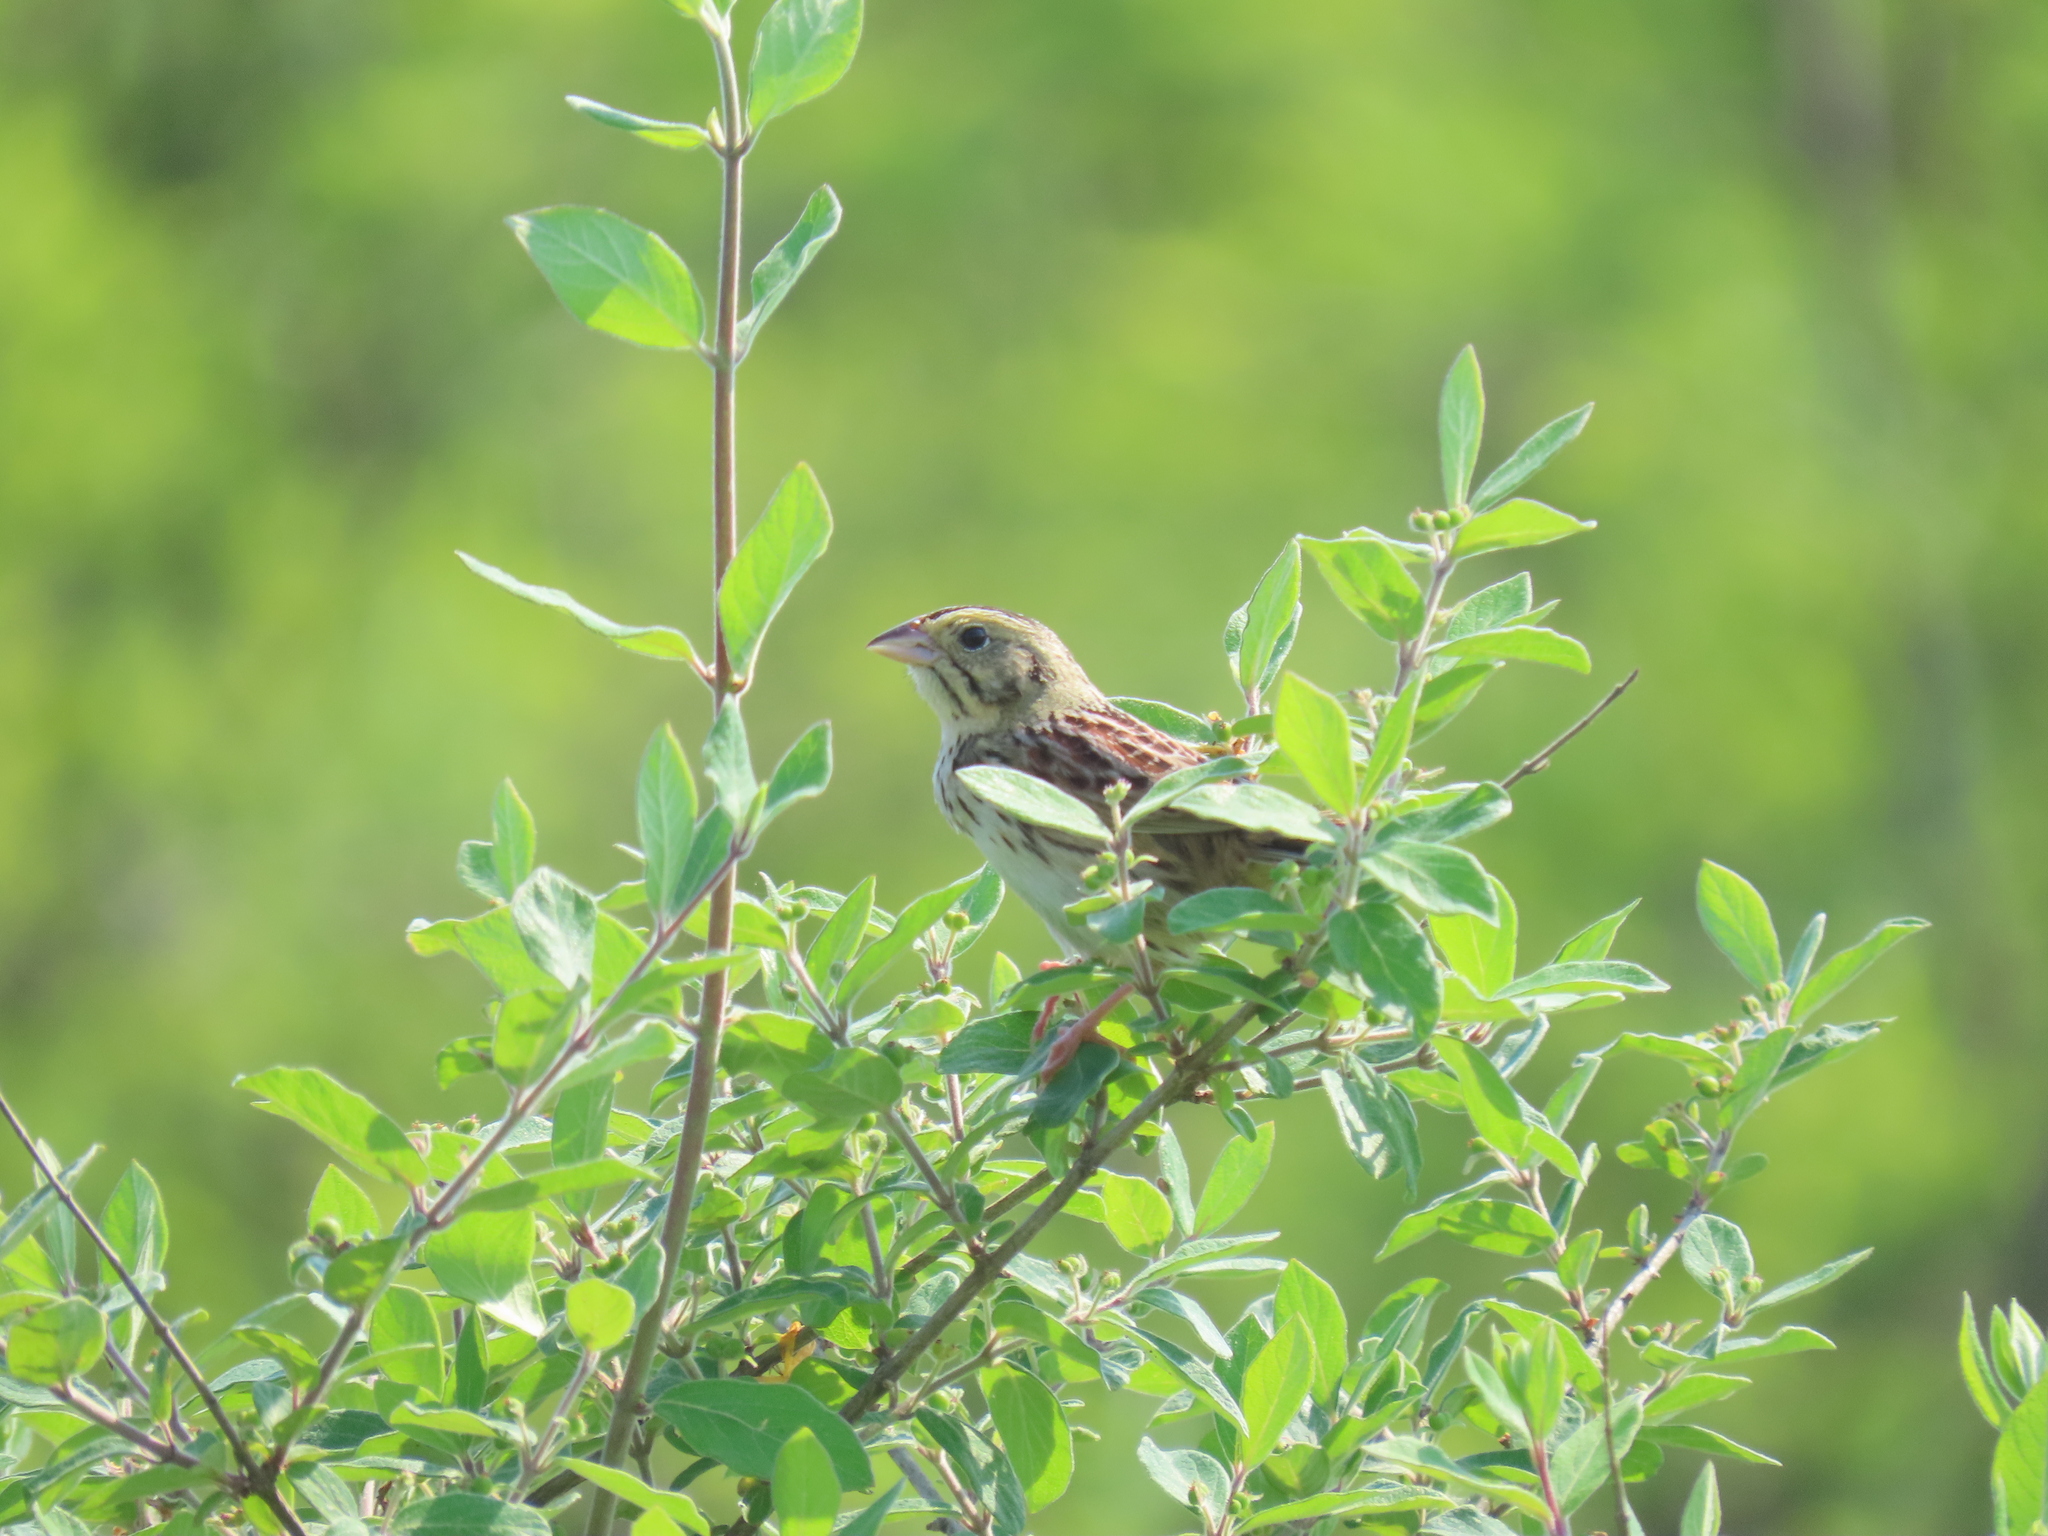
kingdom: Animalia
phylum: Chordata
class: Aves
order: Passeriformes
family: Passerellidae
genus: Centronyx
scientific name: Centronyx henslowii
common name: Henslow's sparrow
